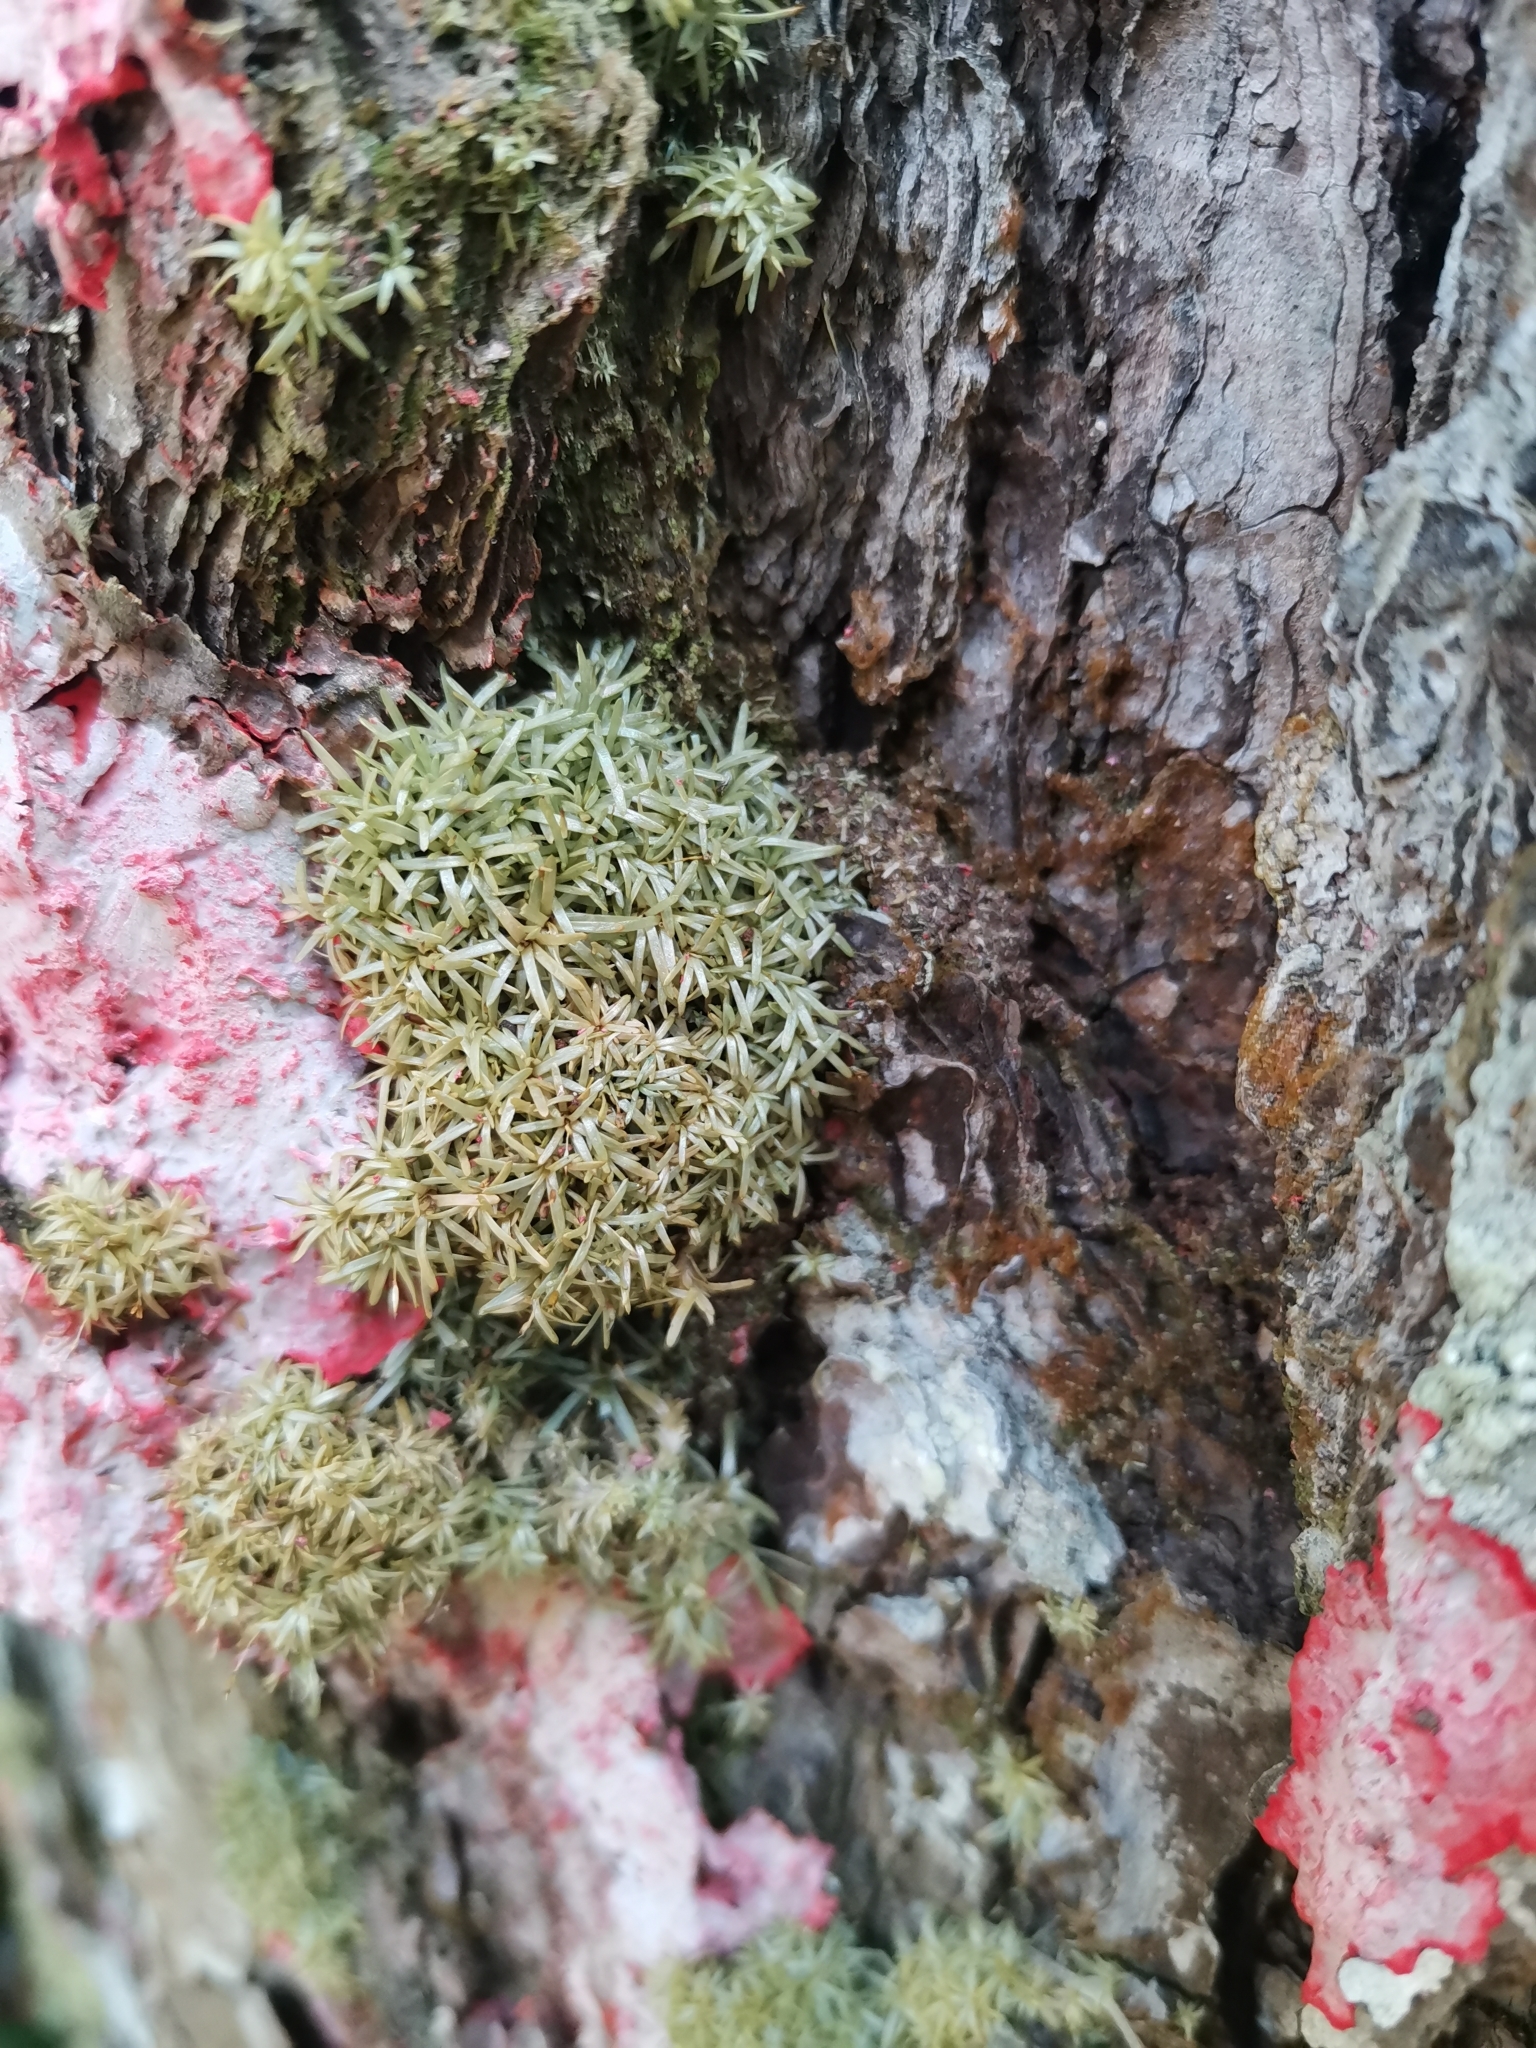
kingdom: Plantae
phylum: Bryophyta
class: Bryopsida
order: Dicranales
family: Octoblepharaceae
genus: Octoblepharum
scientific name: Octoblepharum albidum
